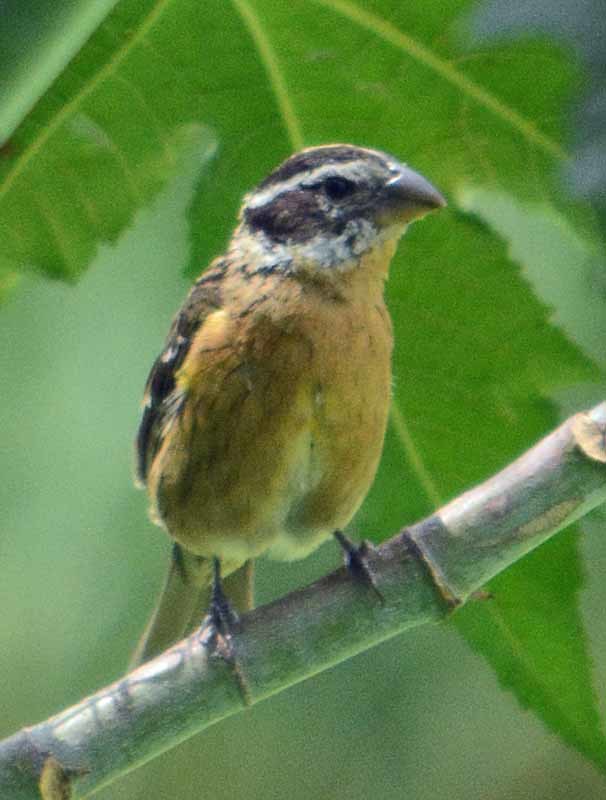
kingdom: Animalia
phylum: Chordata
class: Aves
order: Passeriformes
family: Cardinalidae
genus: Pheucticus
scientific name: Pheucticus melanocephalus
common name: Black-headed grosbeak
